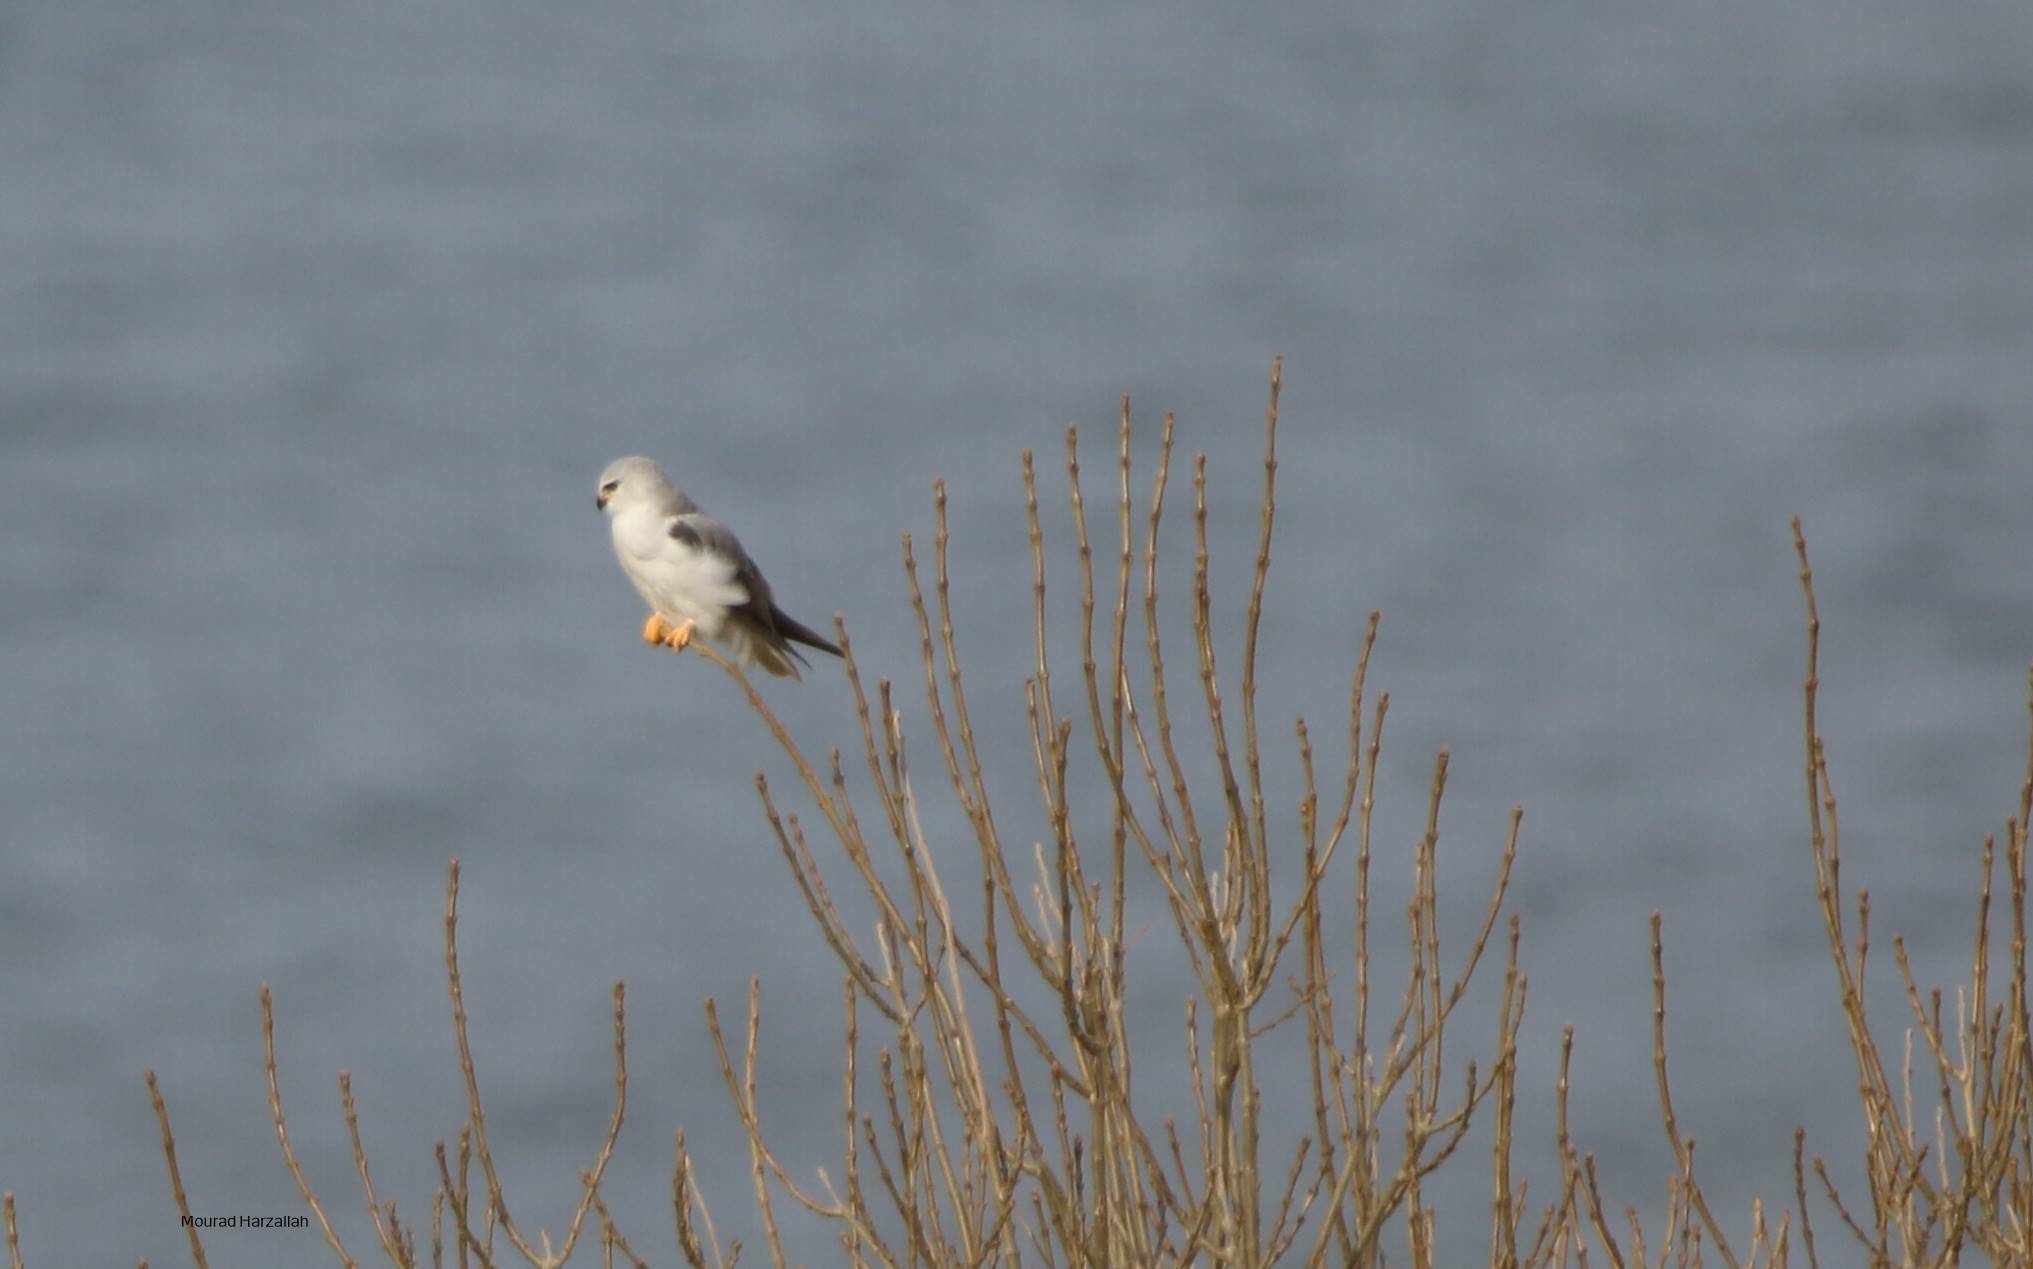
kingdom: Animalia
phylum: Chordata
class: Aves
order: Accipitriformes
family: Accipitridae
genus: Elanus
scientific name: Elanus caeruleus
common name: Black-winged kite
